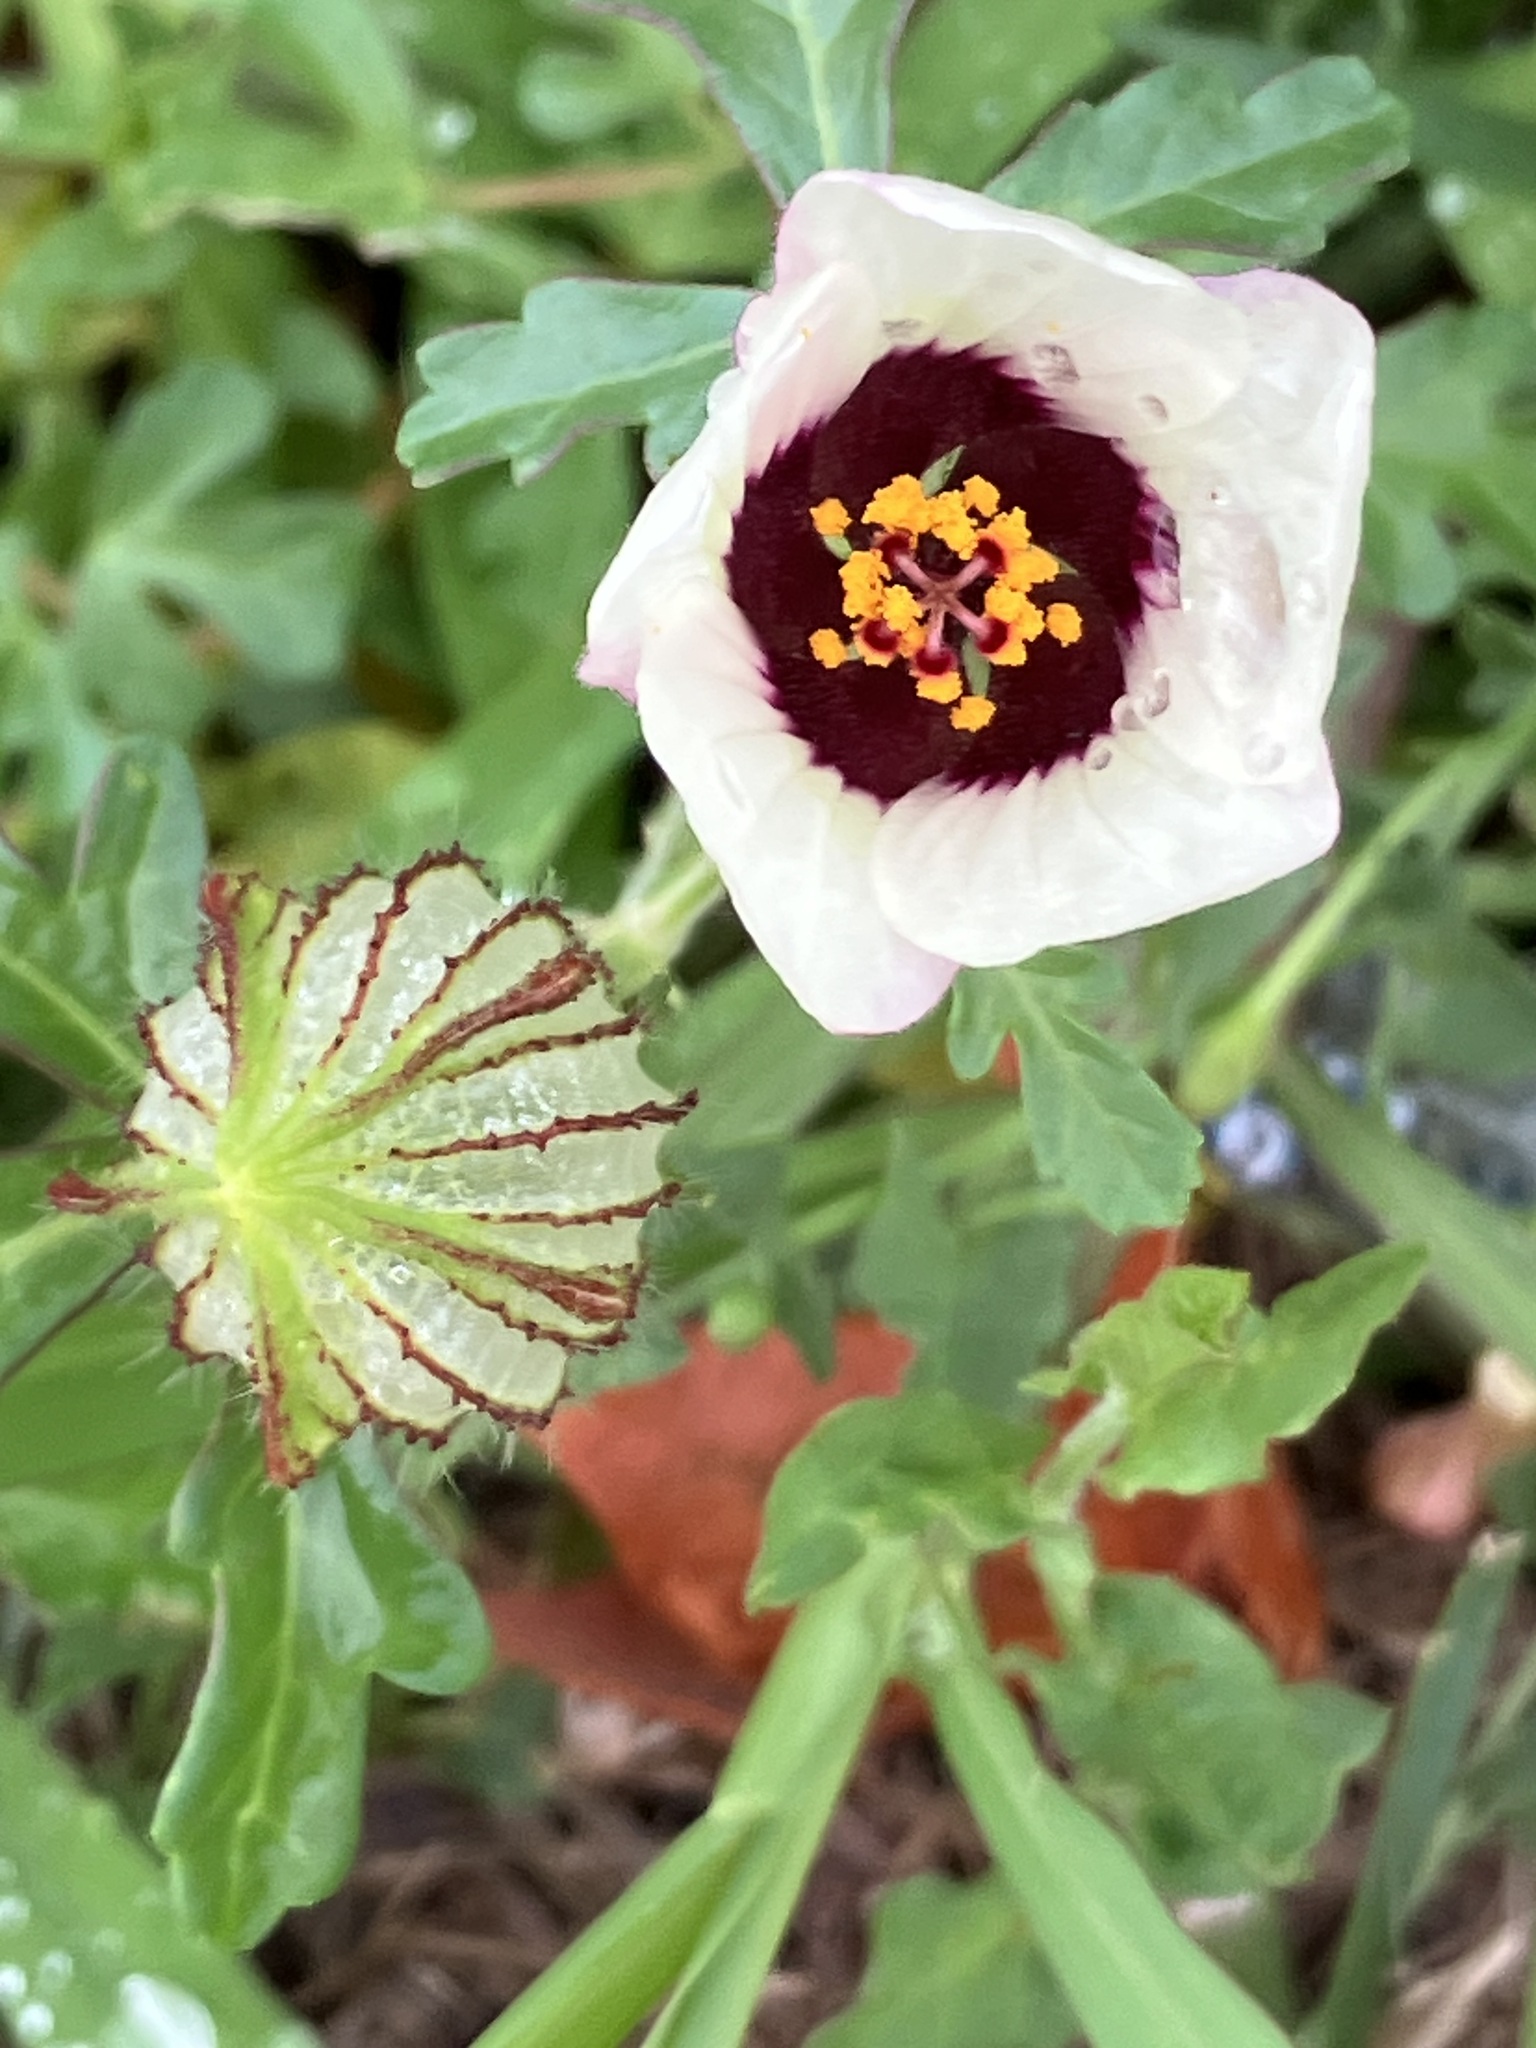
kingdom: Plantae
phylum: Tracheophyta
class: Magnoliopsida
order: Malvales
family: Malvaceae
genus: Hibiscus
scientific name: Hibiscus trionum
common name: Bladder ketmia
